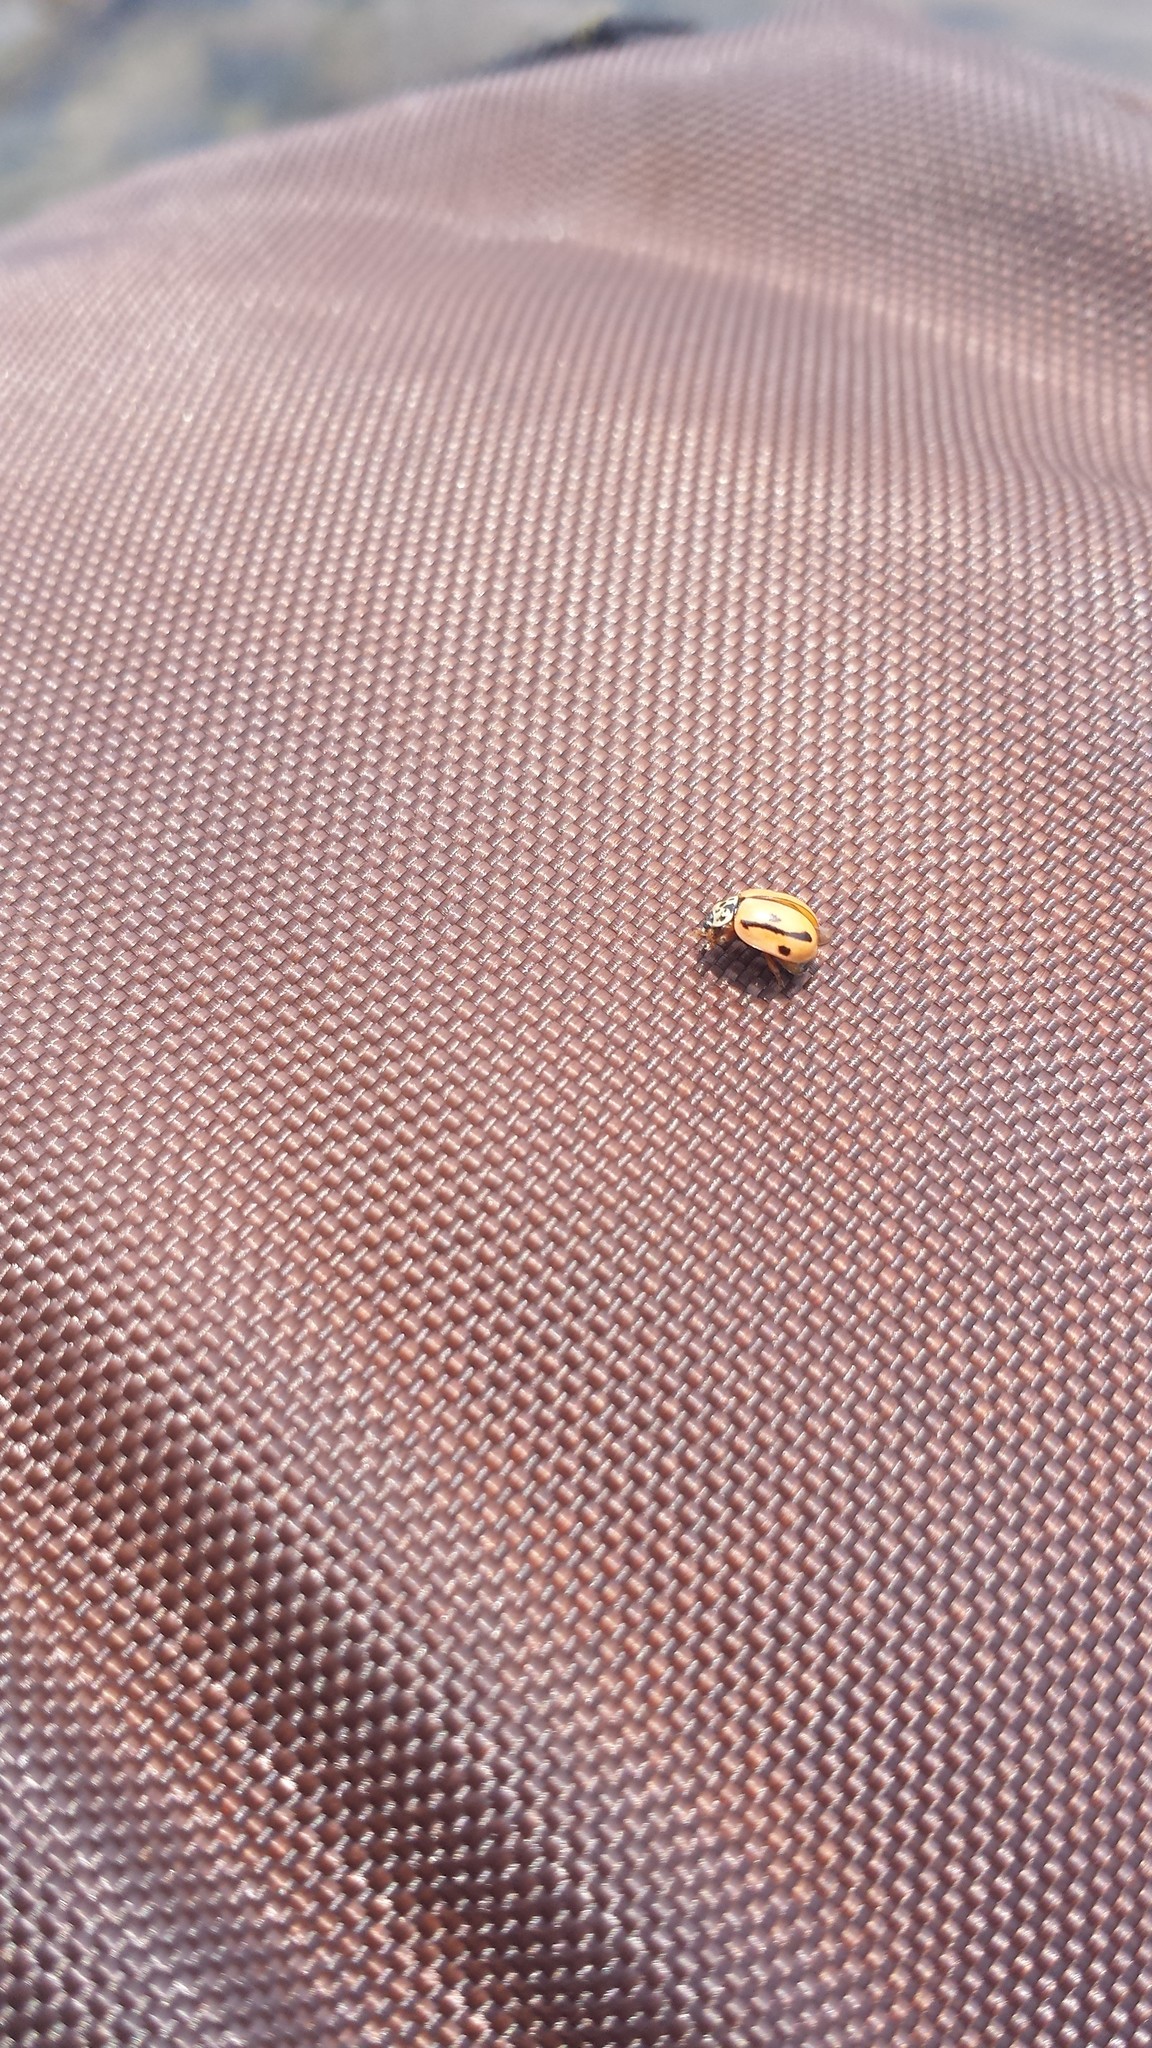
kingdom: Animalia
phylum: Arthropoda
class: Insecta
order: Coleoptera
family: Coccinellidae
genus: Mulsantina
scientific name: Mulsantina hudsonica
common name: Hudsonian ladybird
